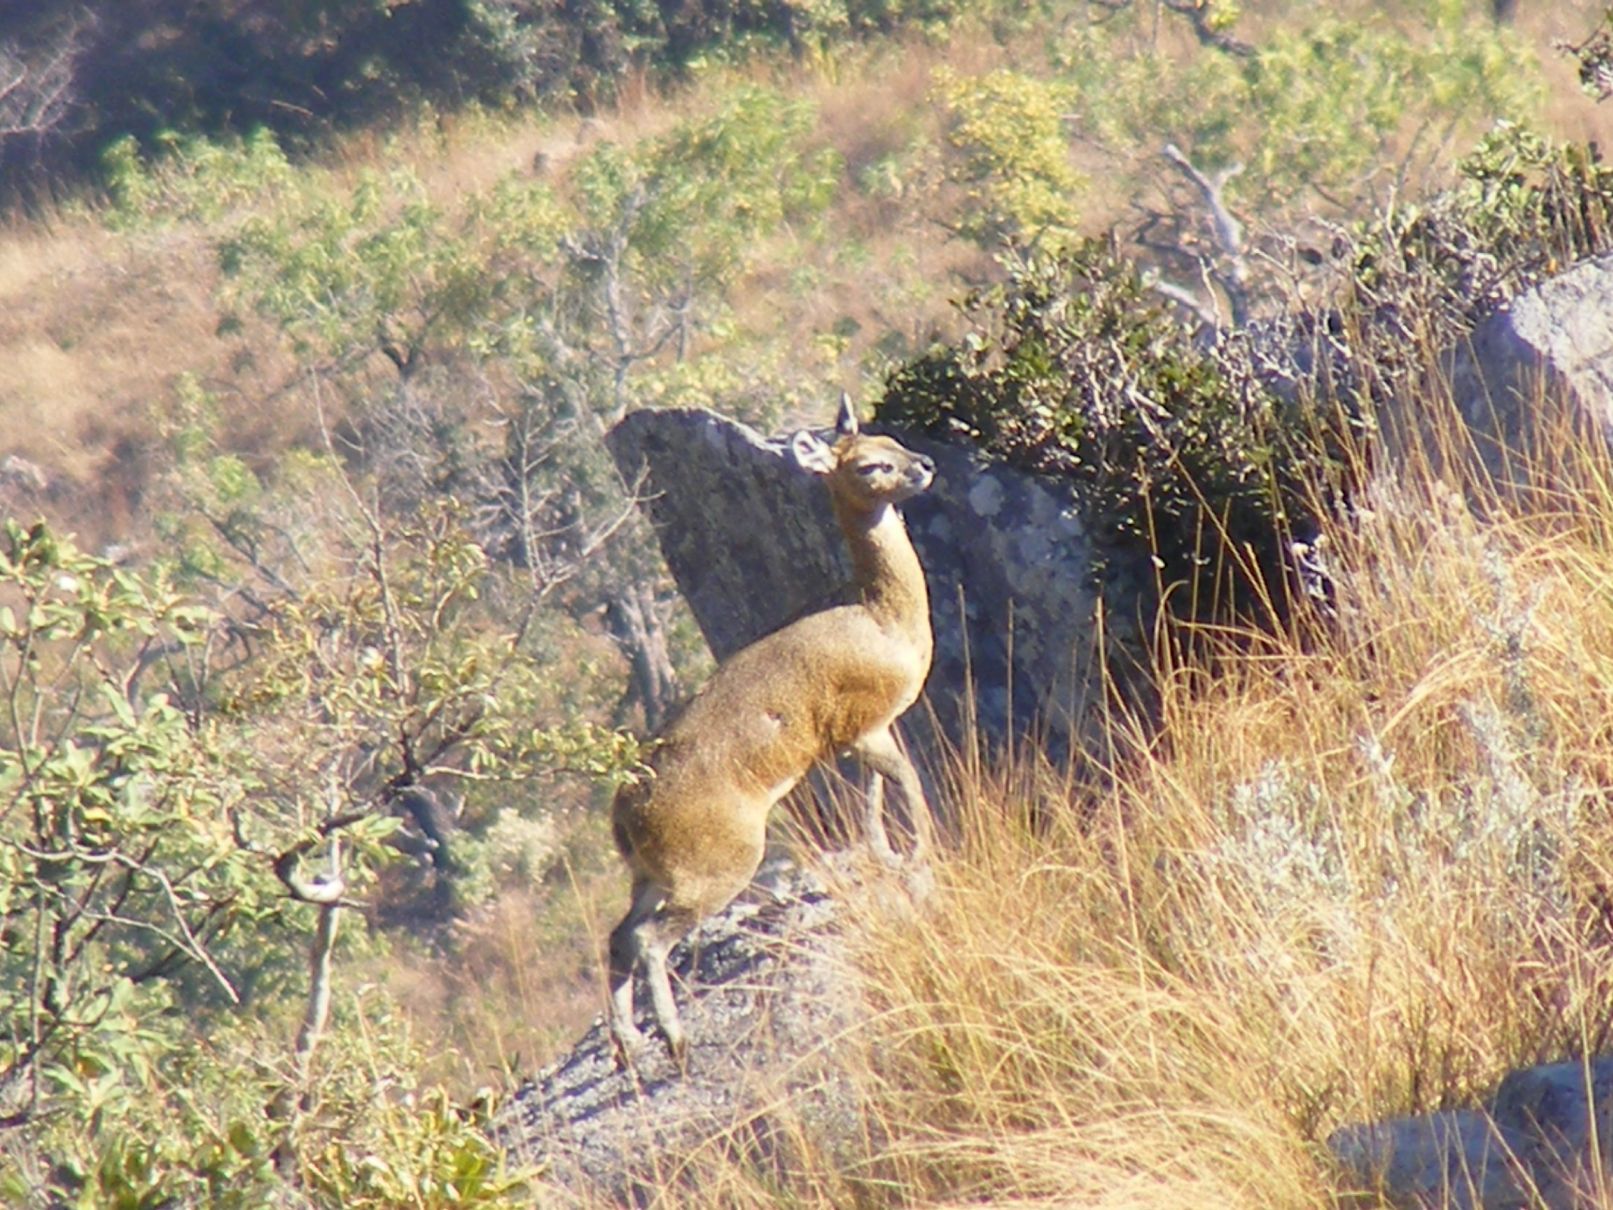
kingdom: Animalia
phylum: Chordata
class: Mammalia
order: Artiodactyla
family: Bovidae
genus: Oreotragus
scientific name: Oreotragus oreotragus
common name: Klipspringer
